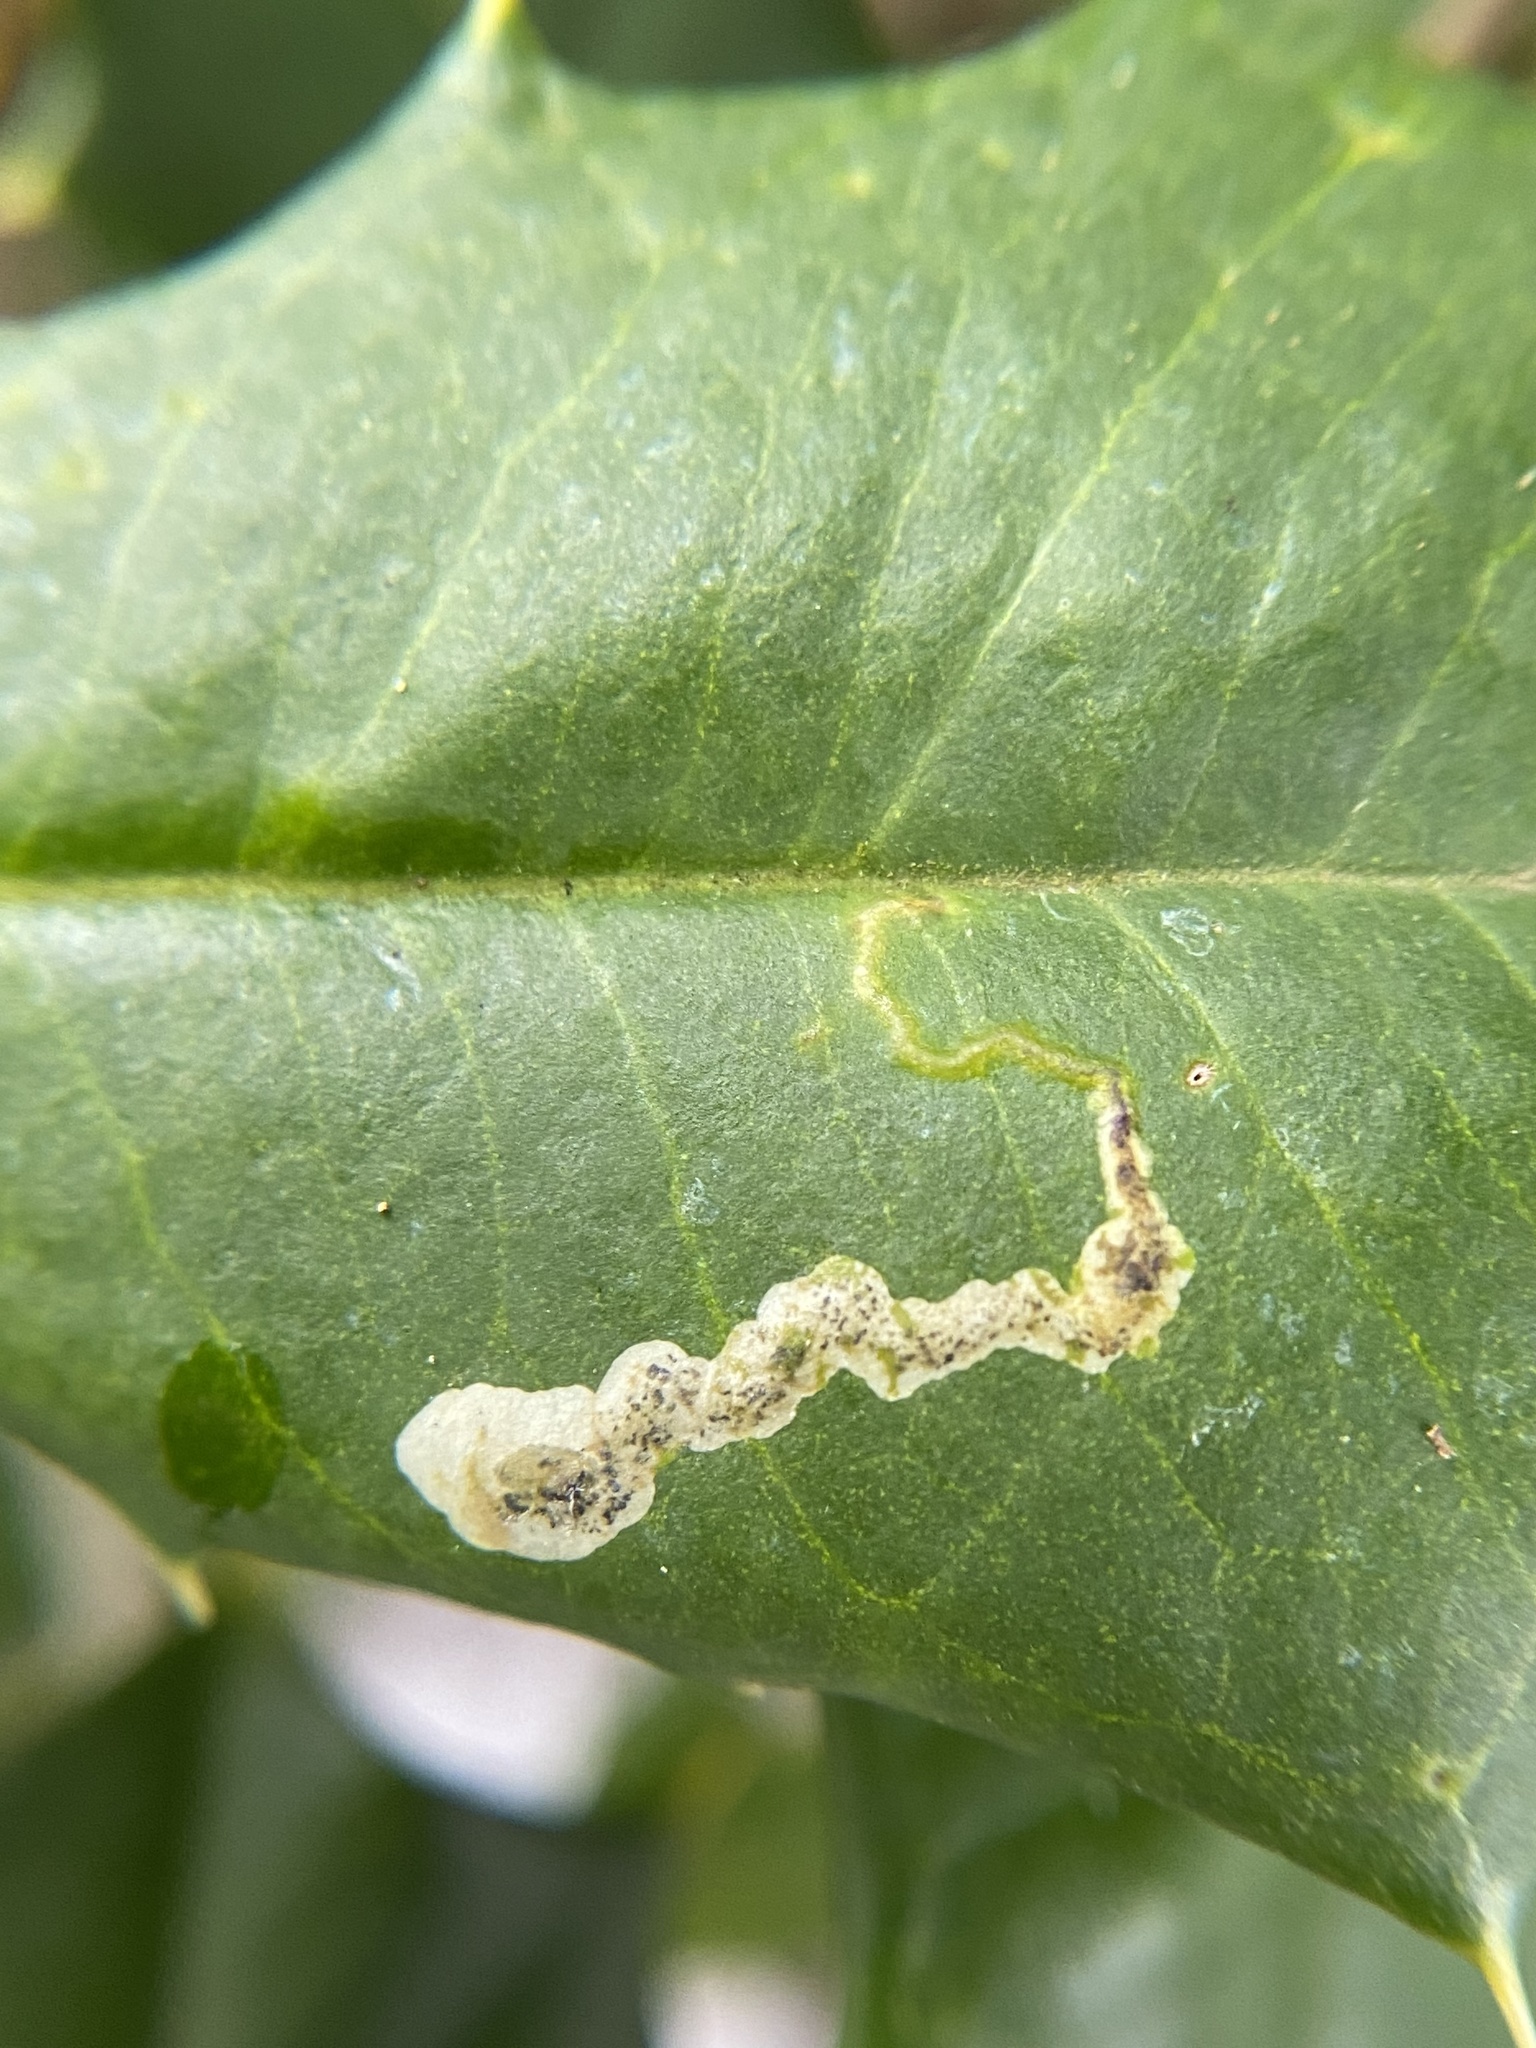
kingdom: Animalia
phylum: Arthropoda
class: Insecta
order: Diptera
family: Agromyzidae
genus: Phytomyza
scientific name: Phytomyza ilicicola
